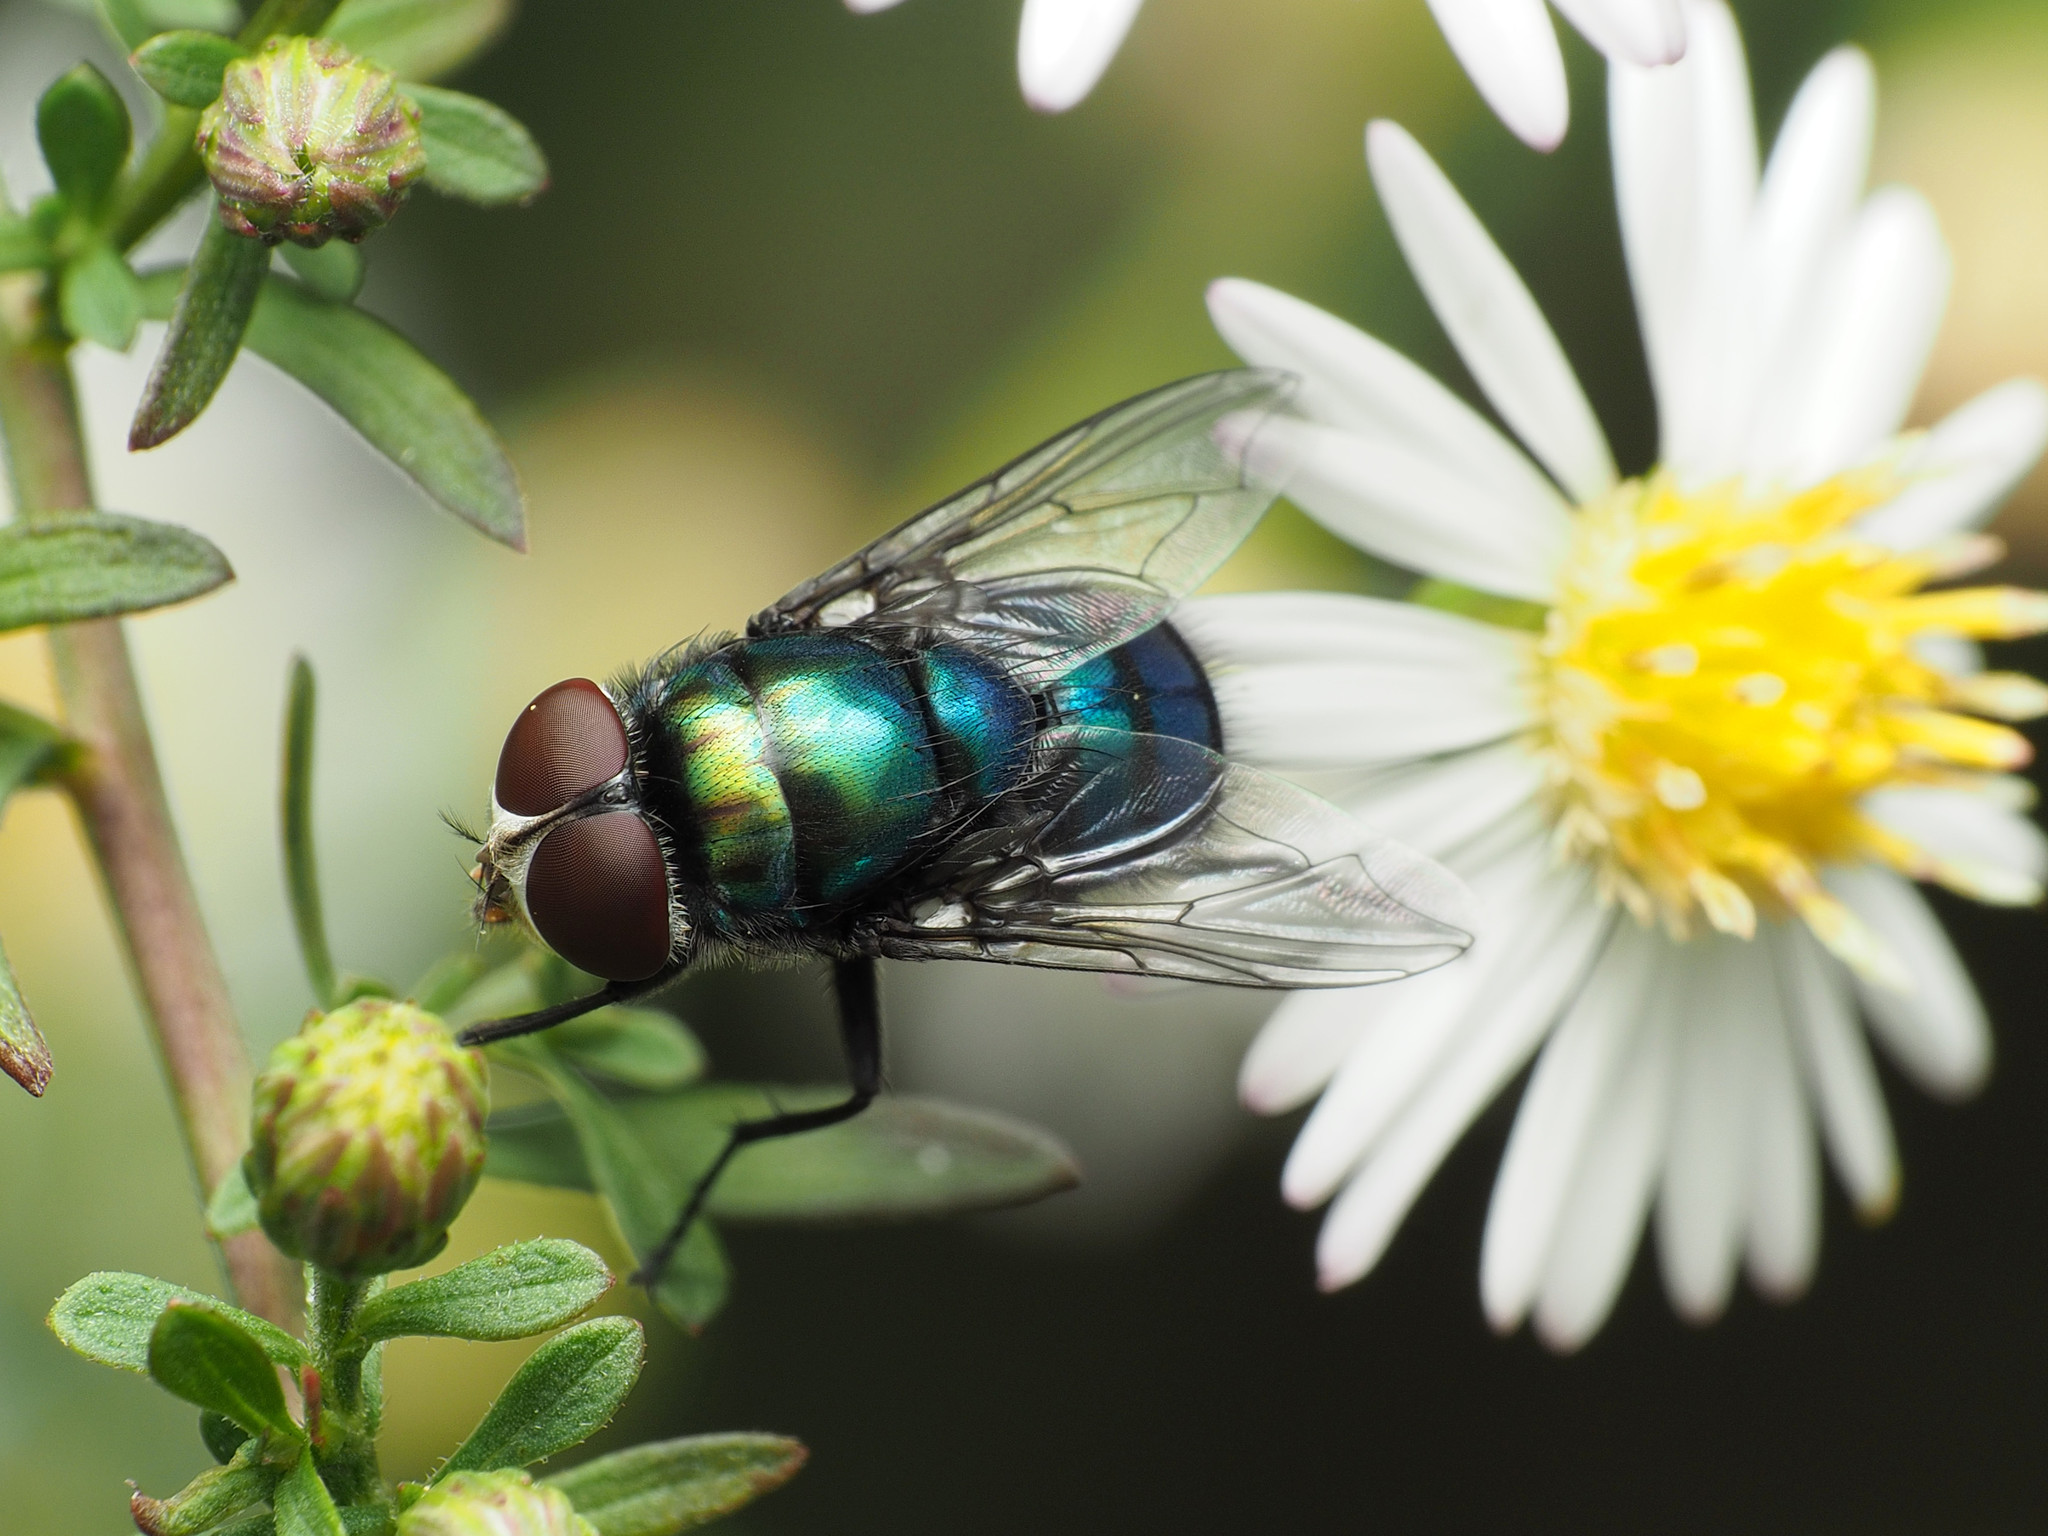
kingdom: Animalia
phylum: Arthropoda
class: Insecta
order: Diptera
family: Calliphoridae
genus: Chrysomya
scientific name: Chrysomya rufifacies
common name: Blow fly
